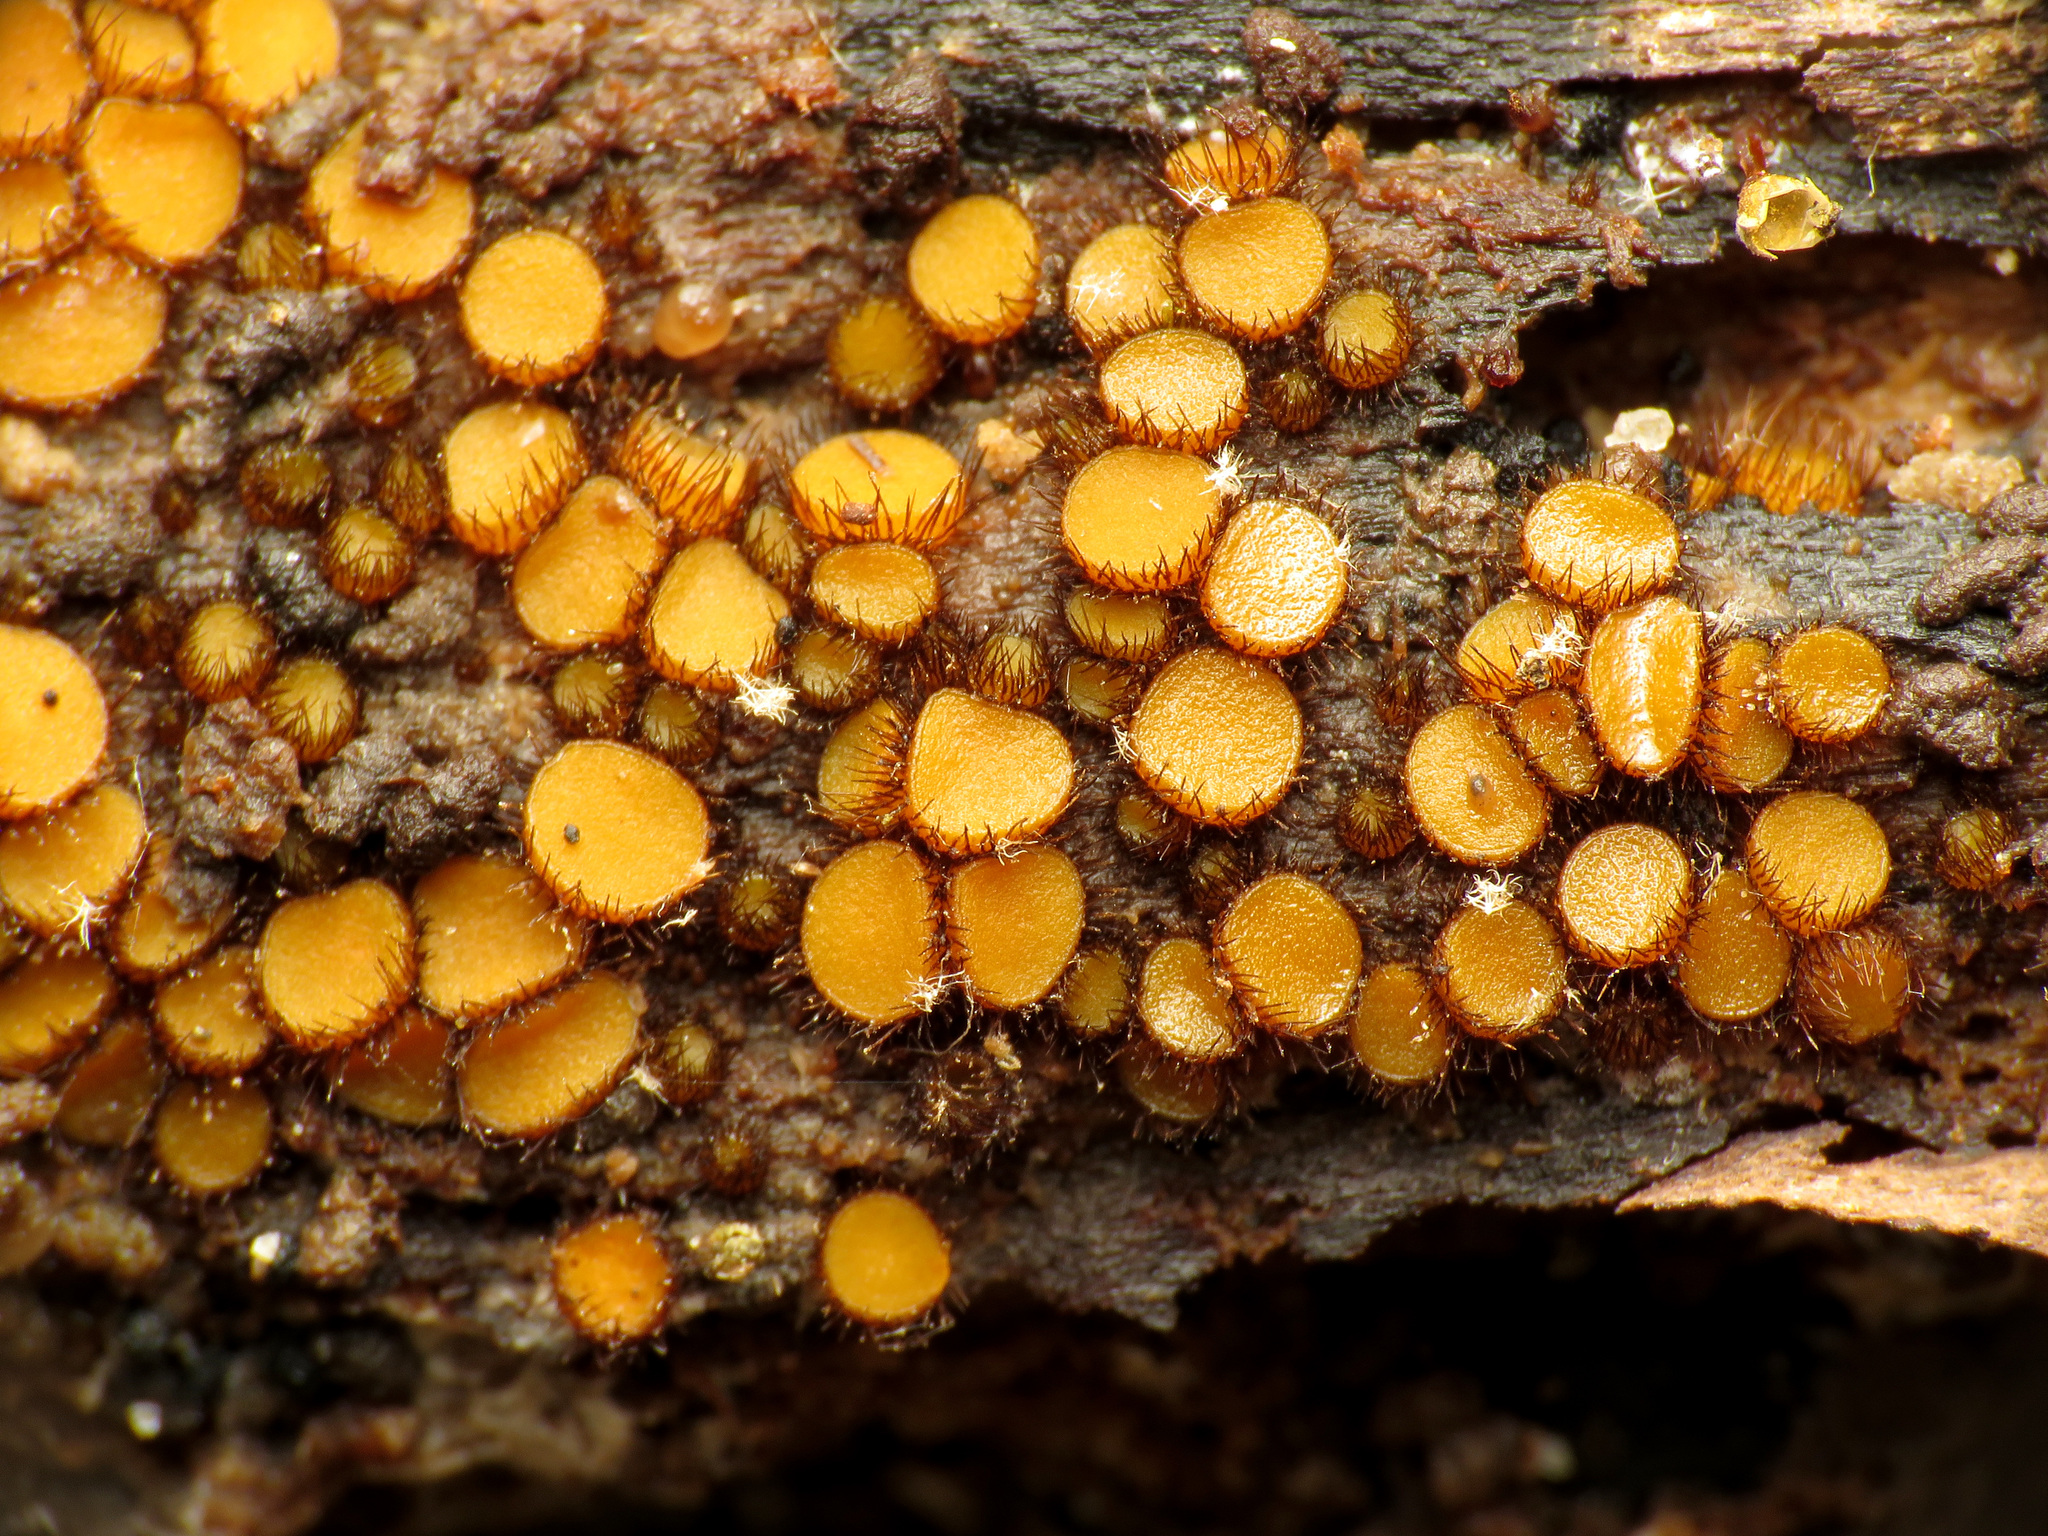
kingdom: Fungi
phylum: Ascomycota
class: Pezizomycetes
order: Pezizales
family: Pyronemataceae
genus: Scutellinia
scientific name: Scutellinia setosa
